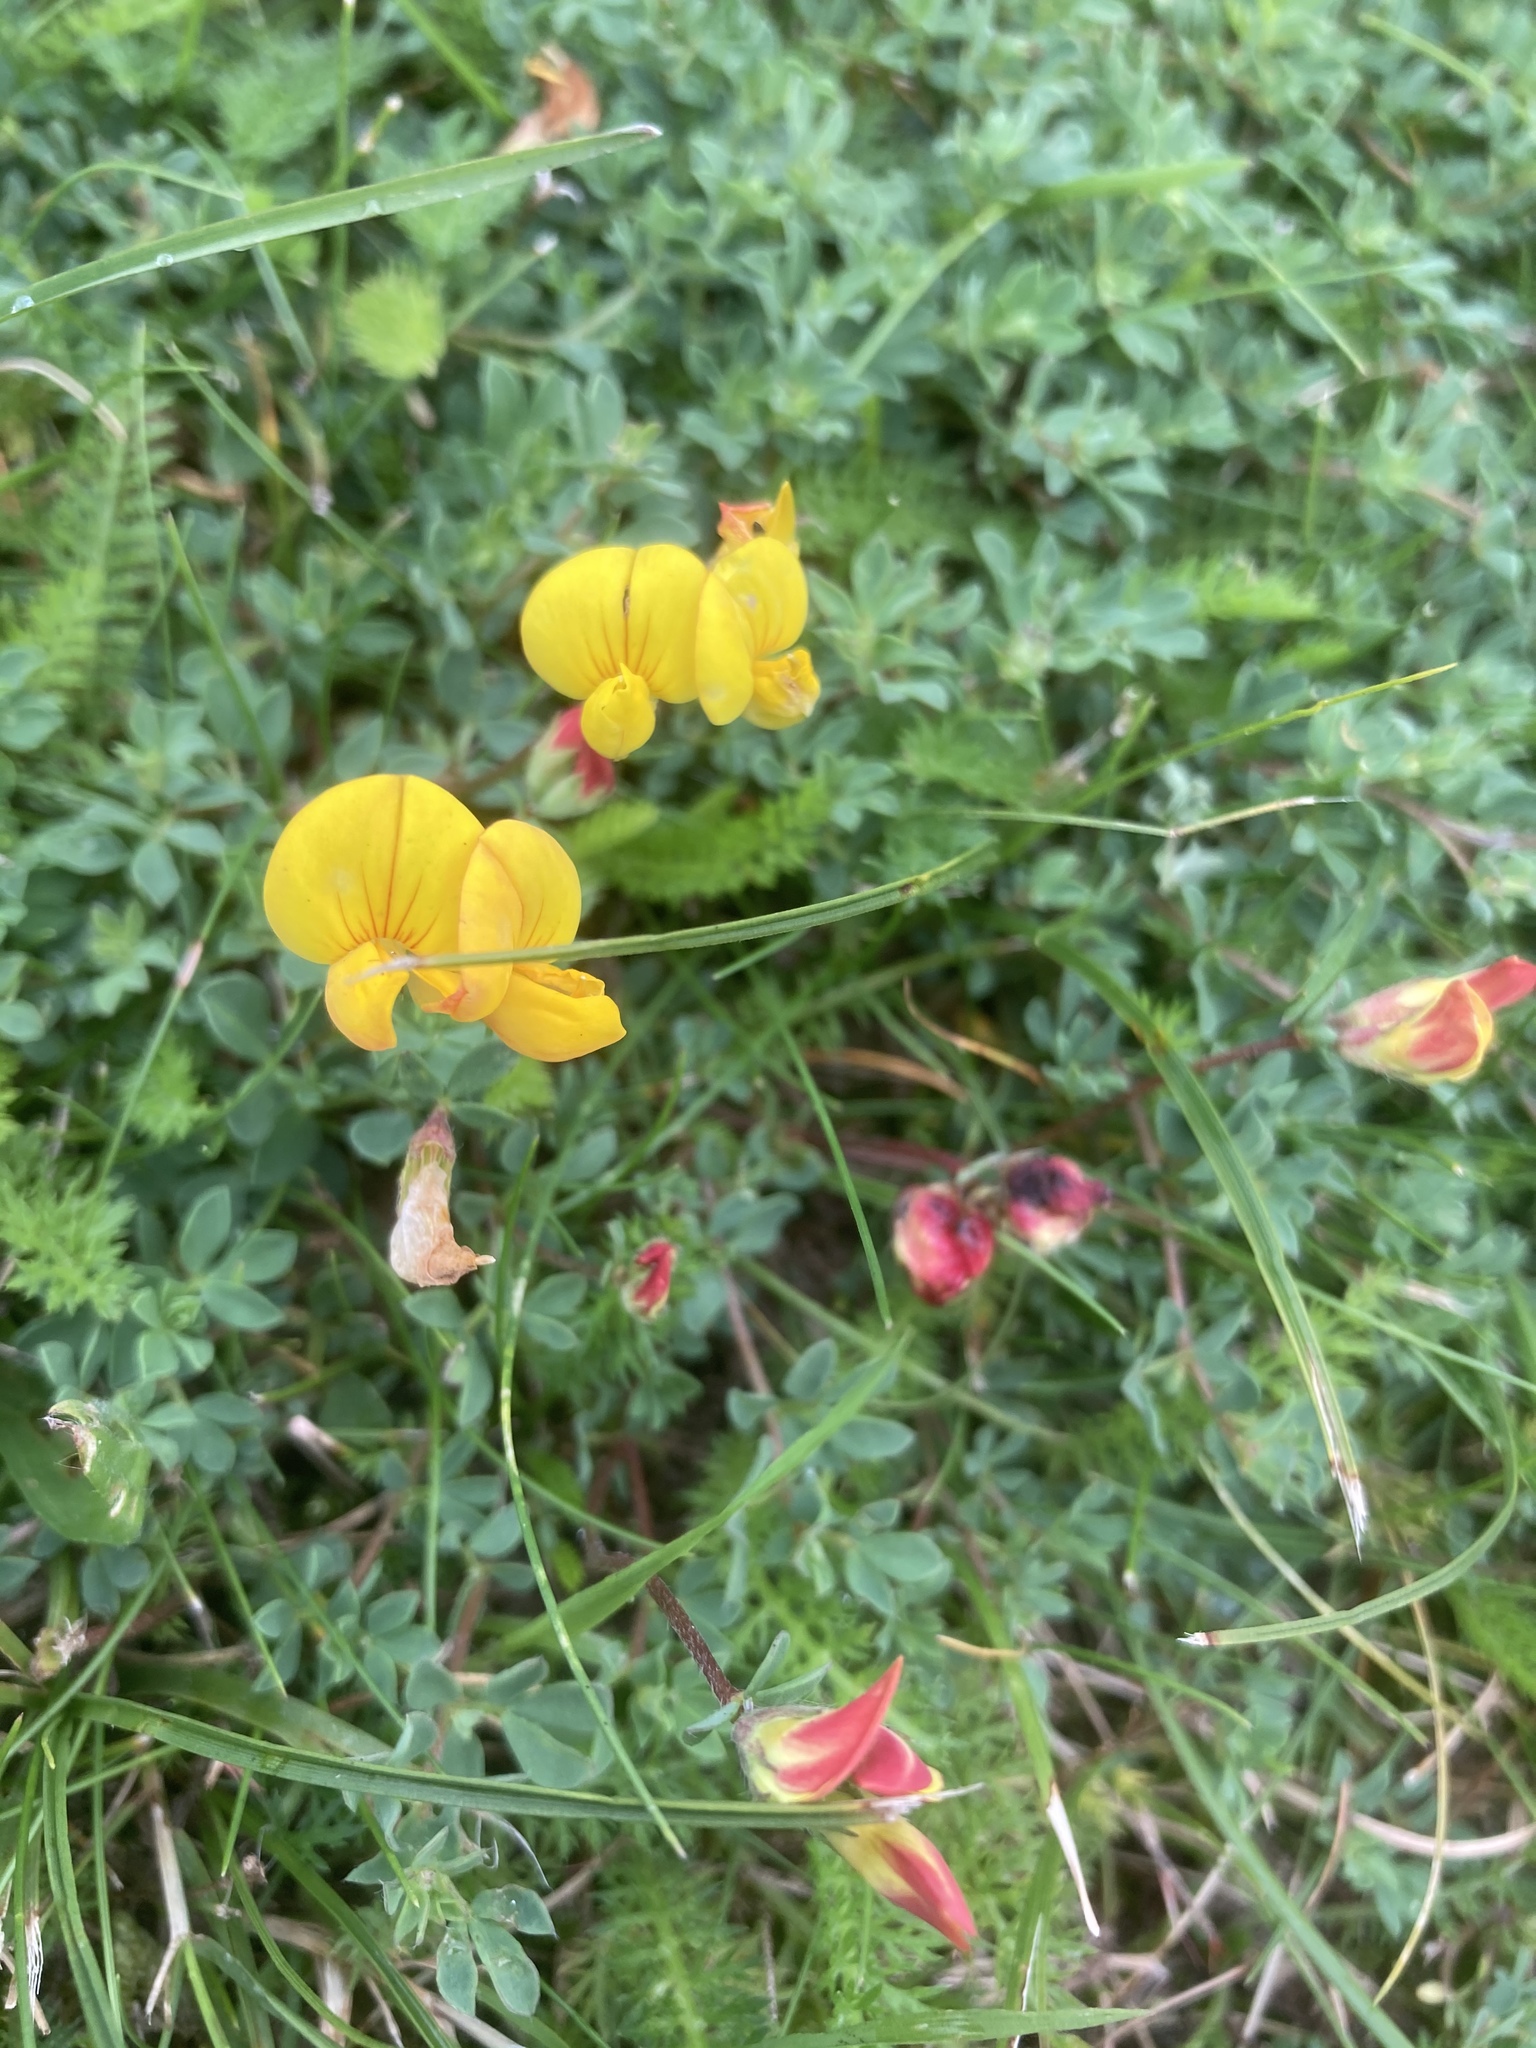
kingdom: Plantae
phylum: Tracheophyta
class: Magnoliopsida
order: Fabales
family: Fabaceae
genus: Lotus
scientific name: Lotus corniculatus
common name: Common bird's-foot-trefoil
